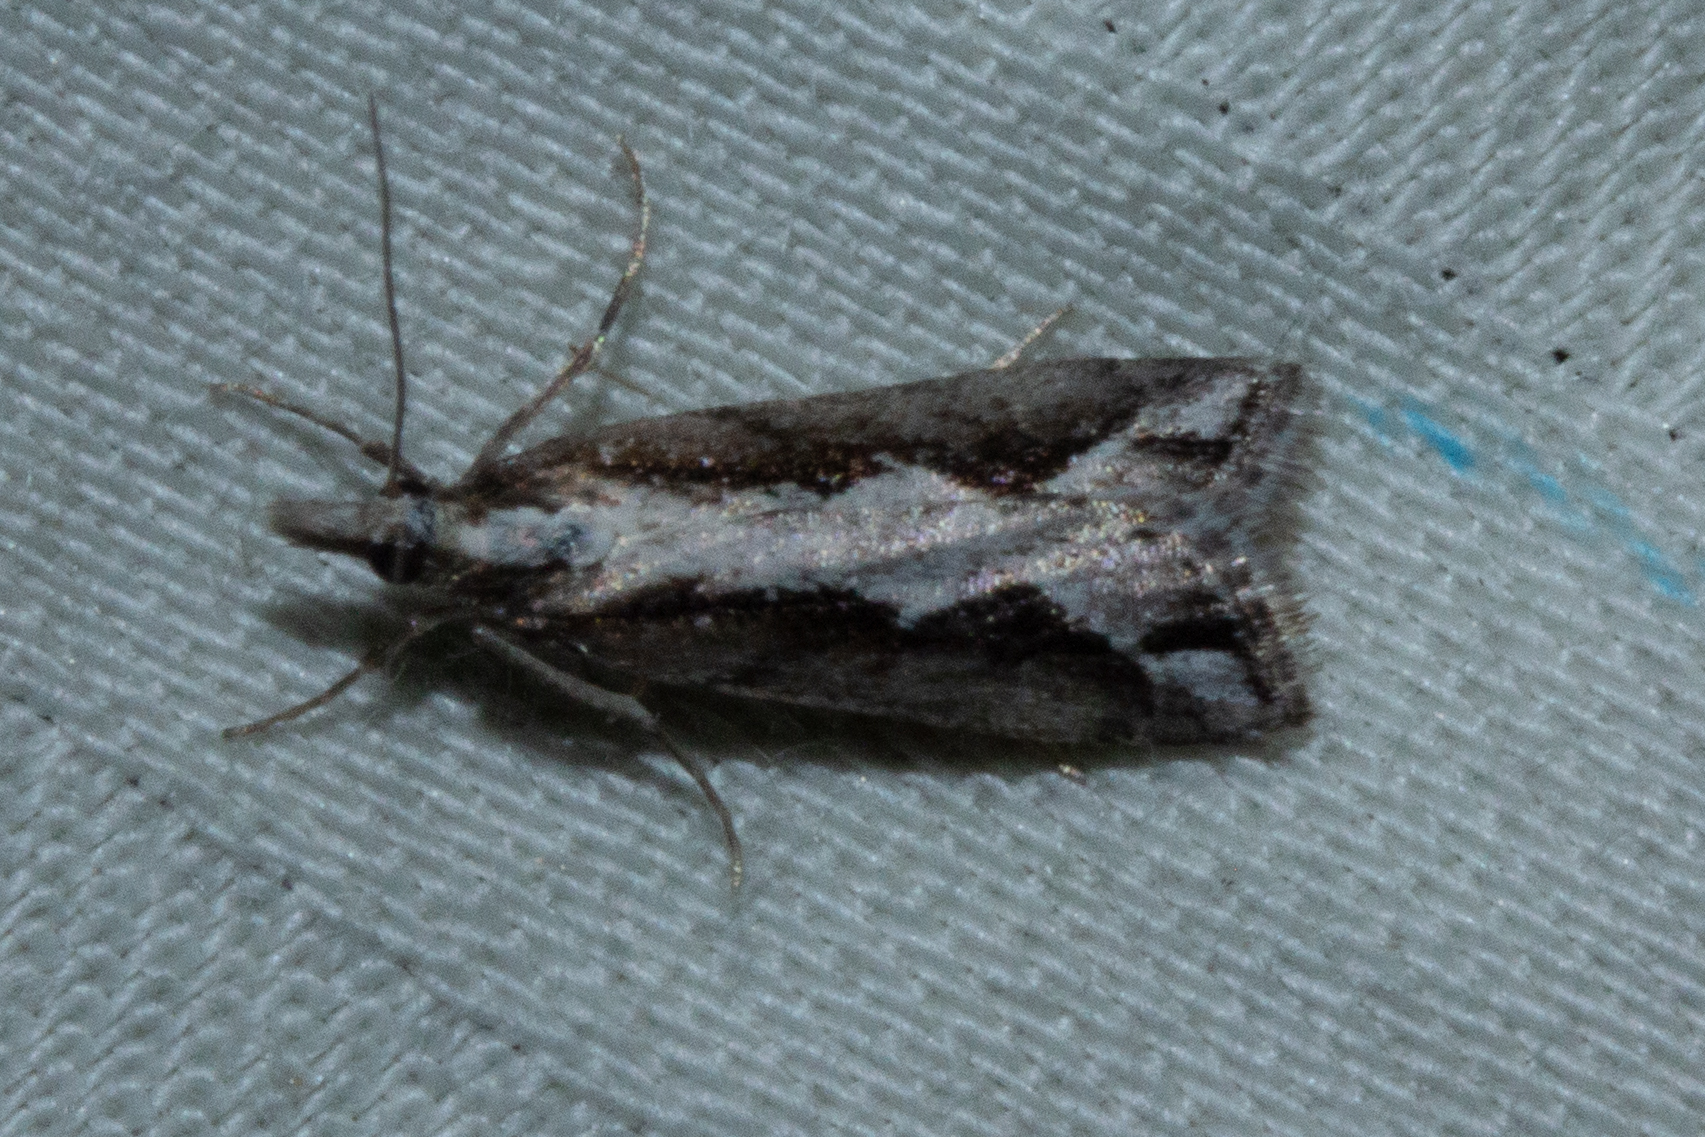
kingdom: Animalia
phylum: Arthropoda
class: Insecta
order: Lepidoptera
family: Crambidae
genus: Eudonia
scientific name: Eudonia steropaea
